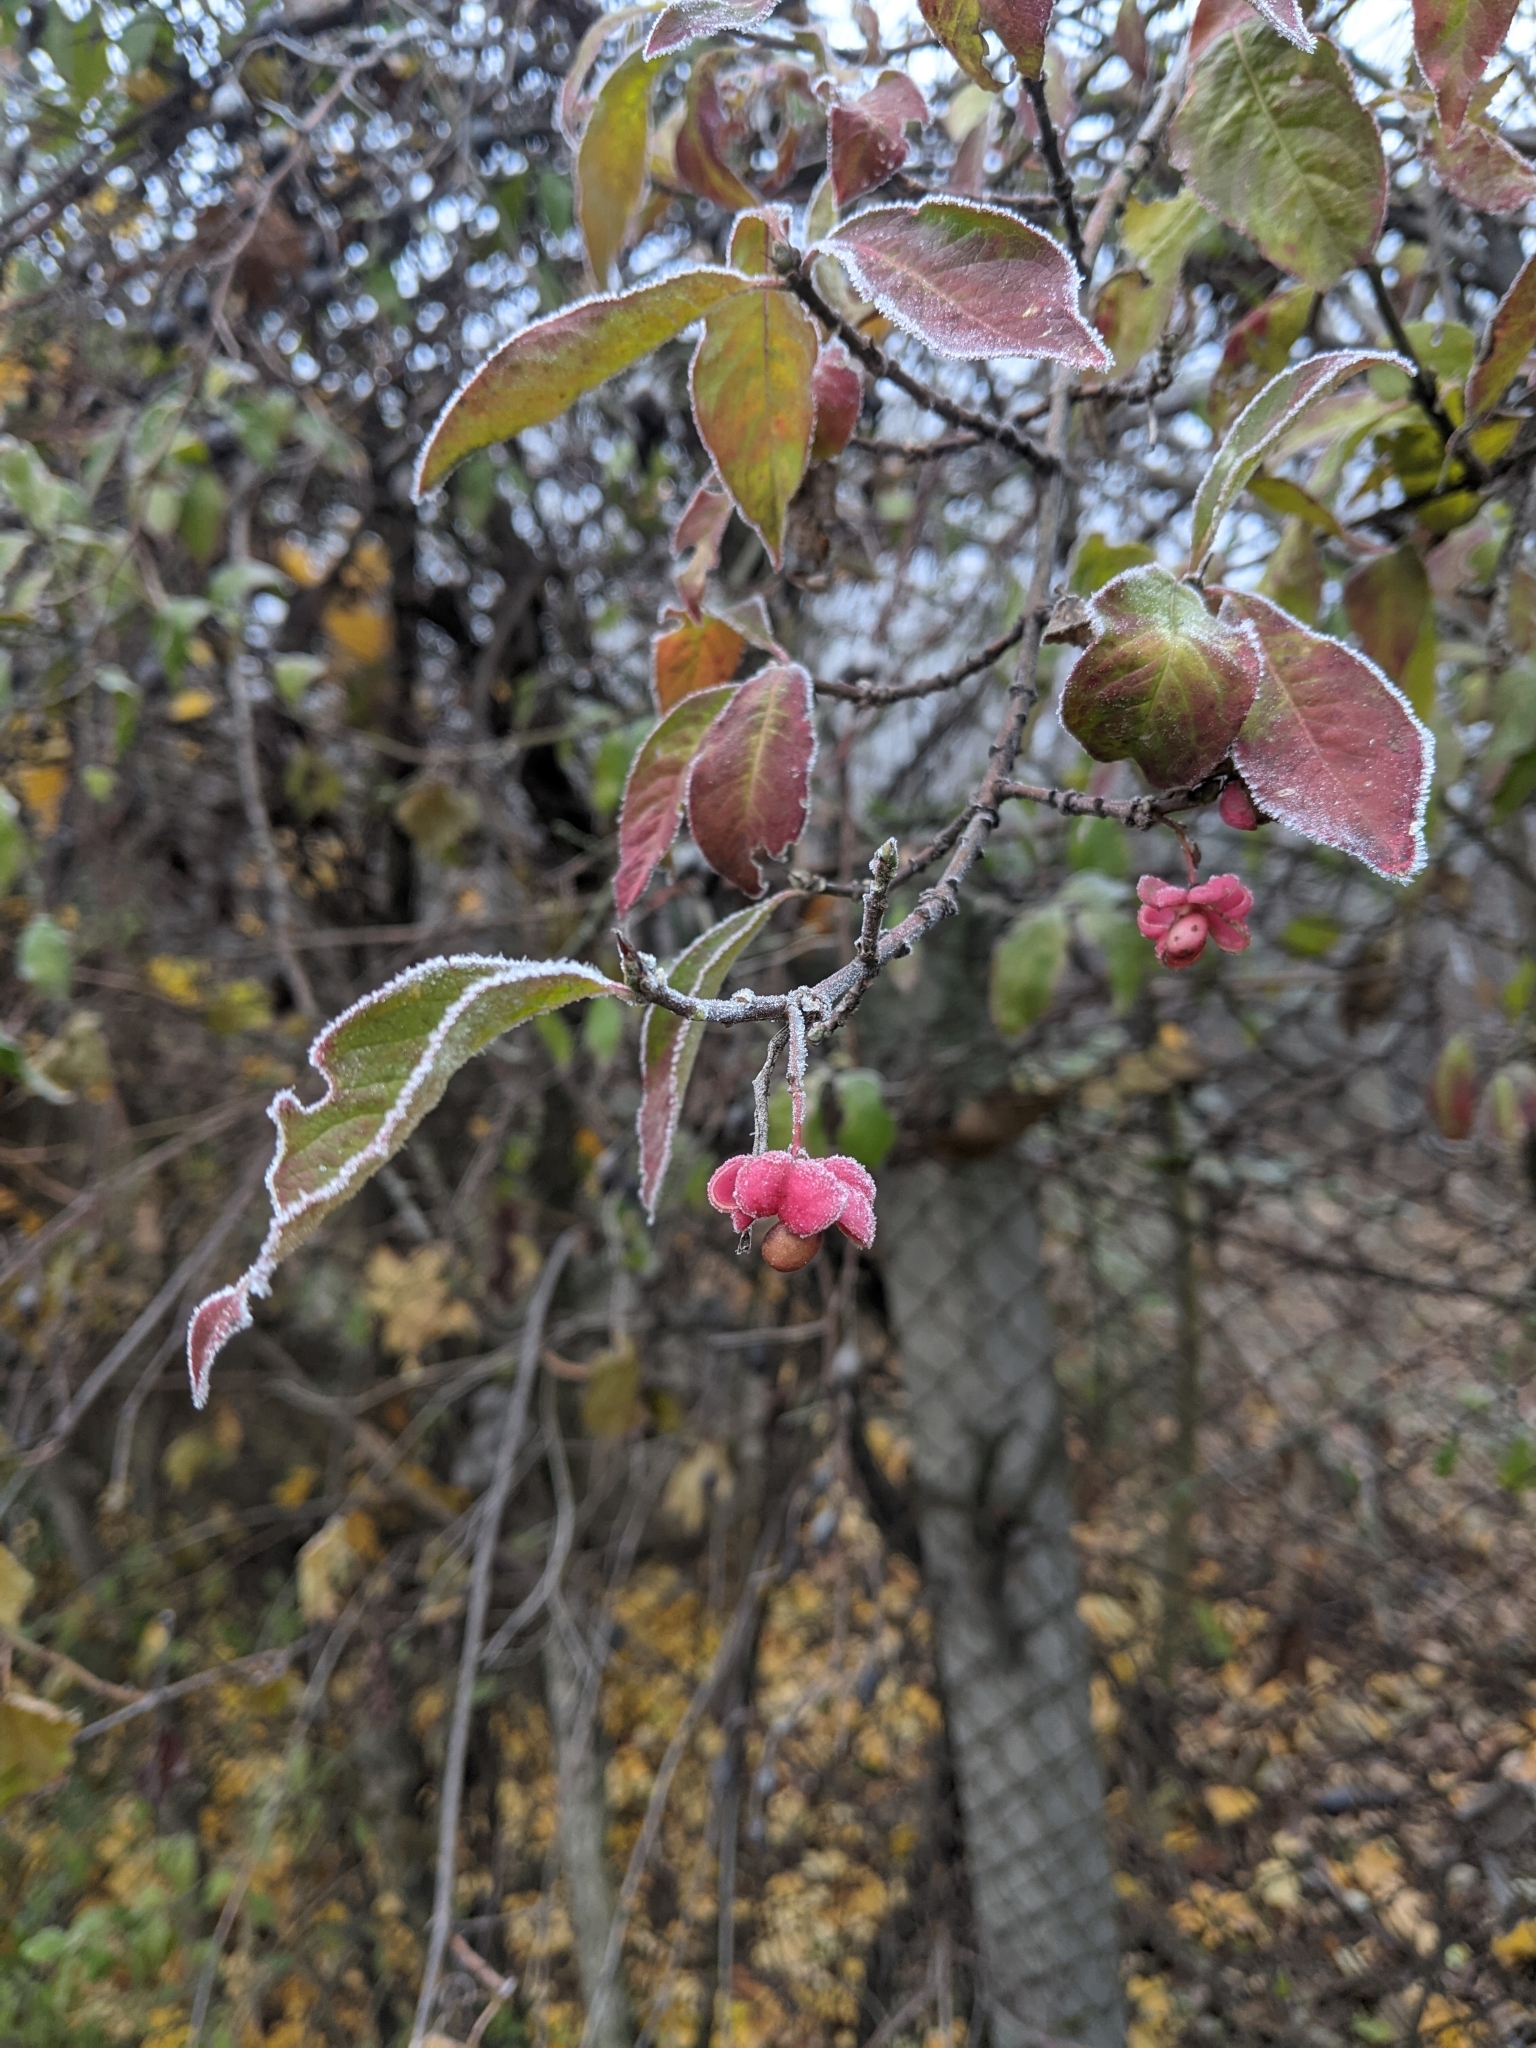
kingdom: Plantae
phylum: Tracheophyta
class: Magnoliopsida
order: Celastrales
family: Celastraceae
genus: Euonymus
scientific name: Euonymus europaeus
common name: Spindle
